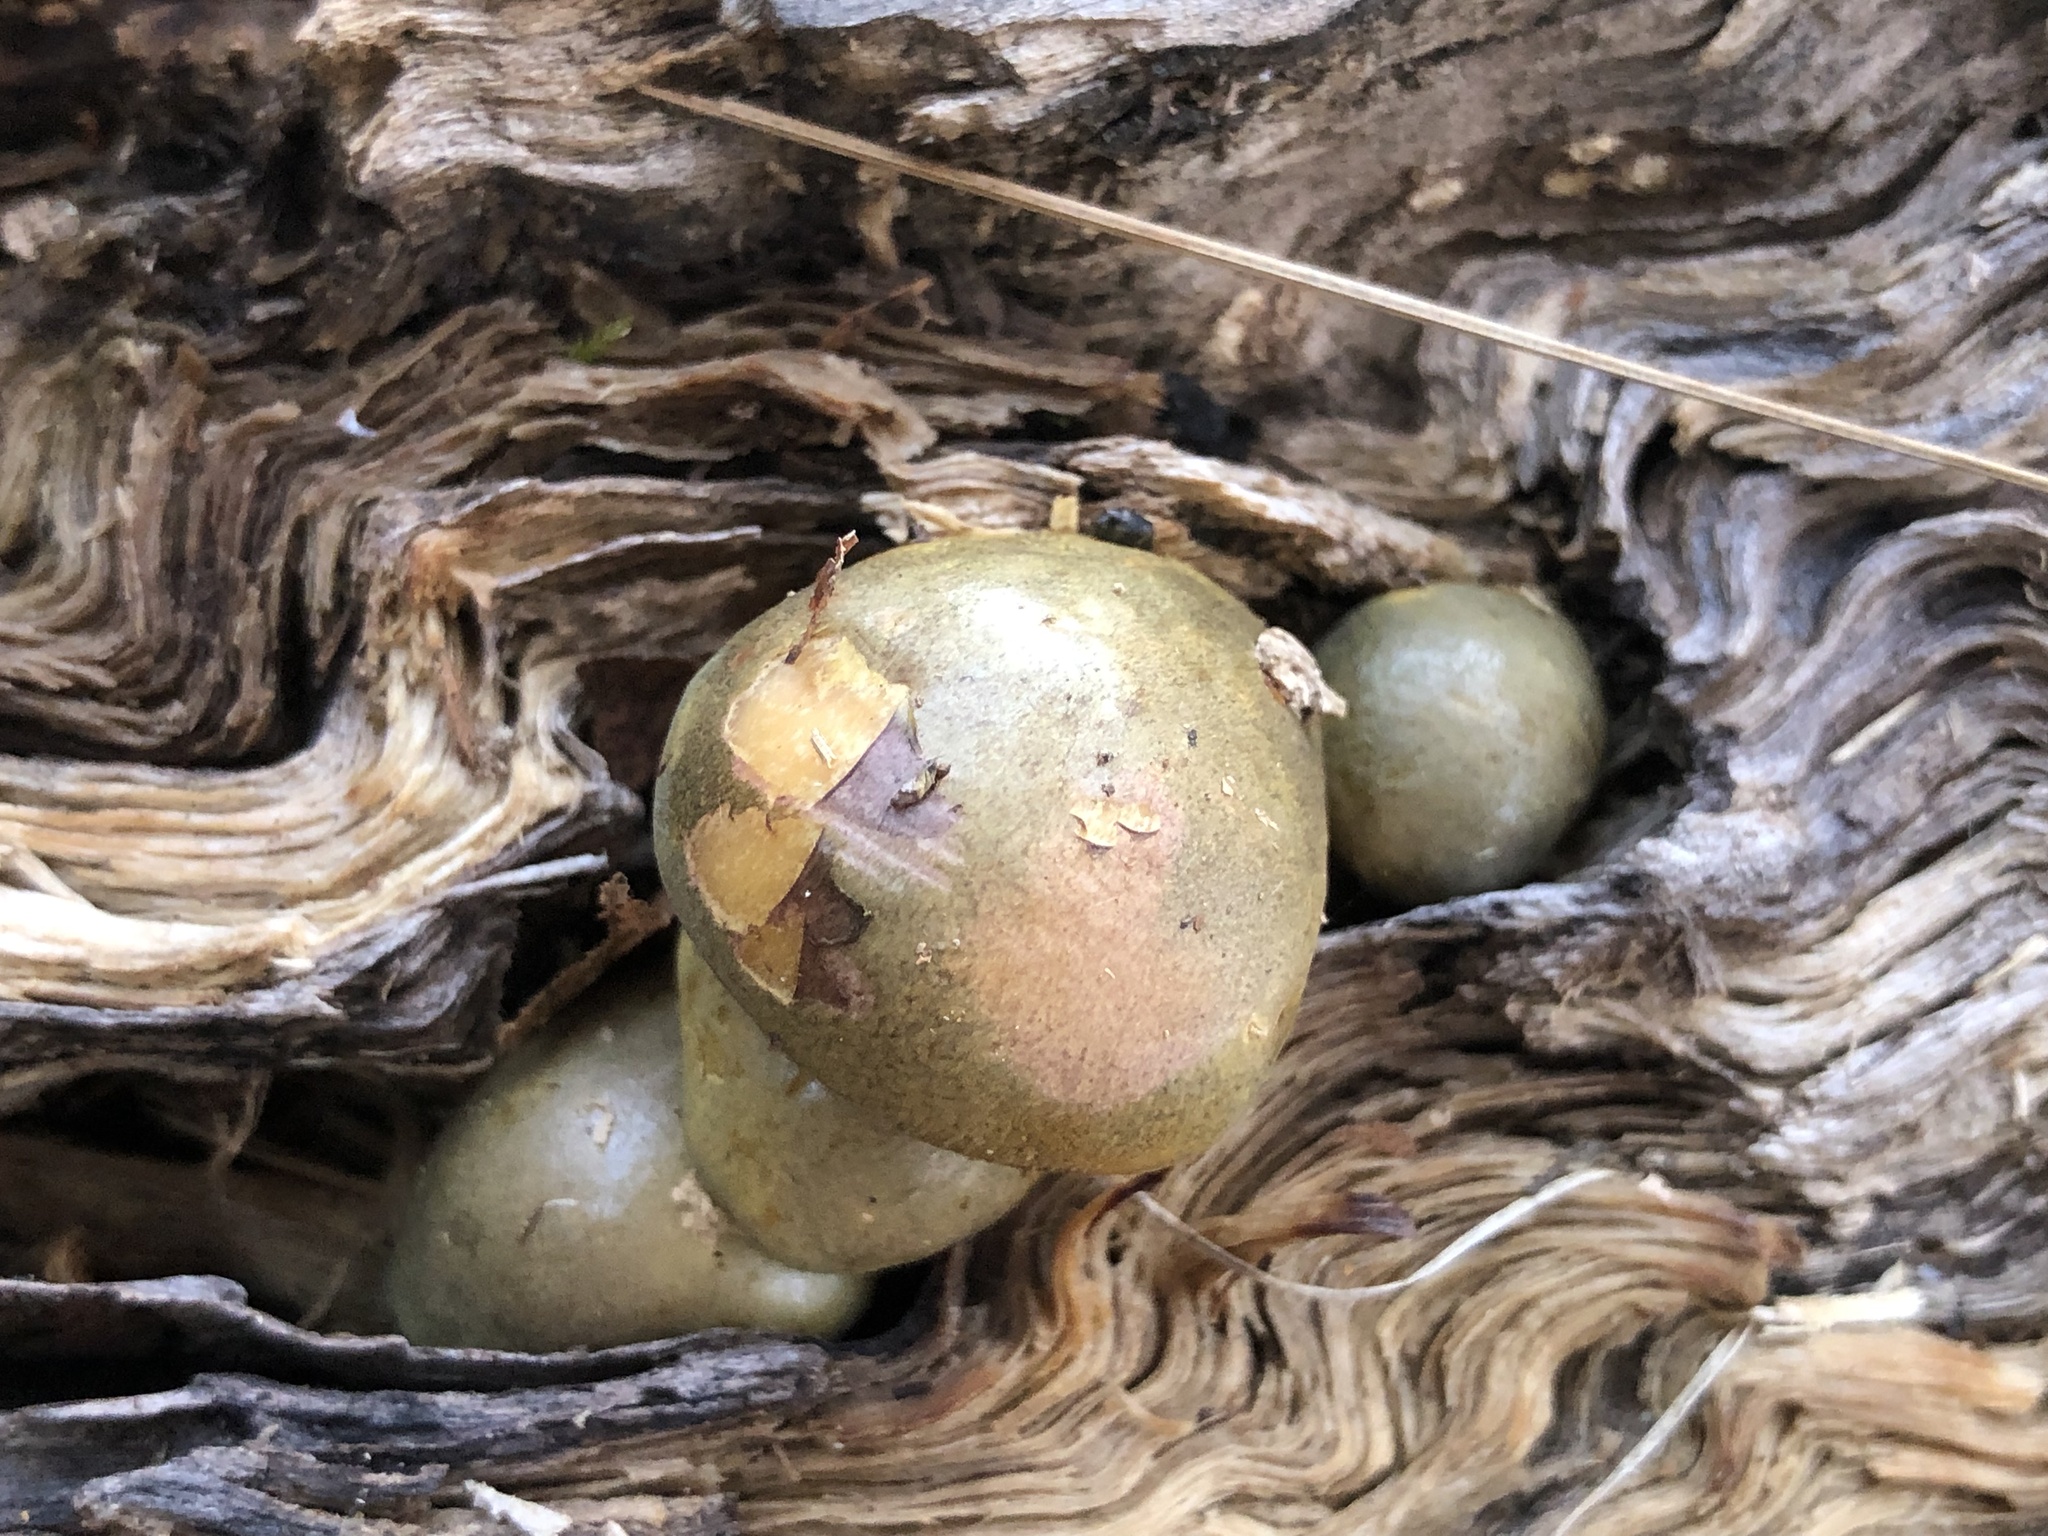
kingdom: Fungi
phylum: Basidiomycota
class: Agaricomycetes
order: Agaricales
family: Sarcomyxaceae
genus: Sarcomyxa
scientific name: Sarcomyxa serotina
